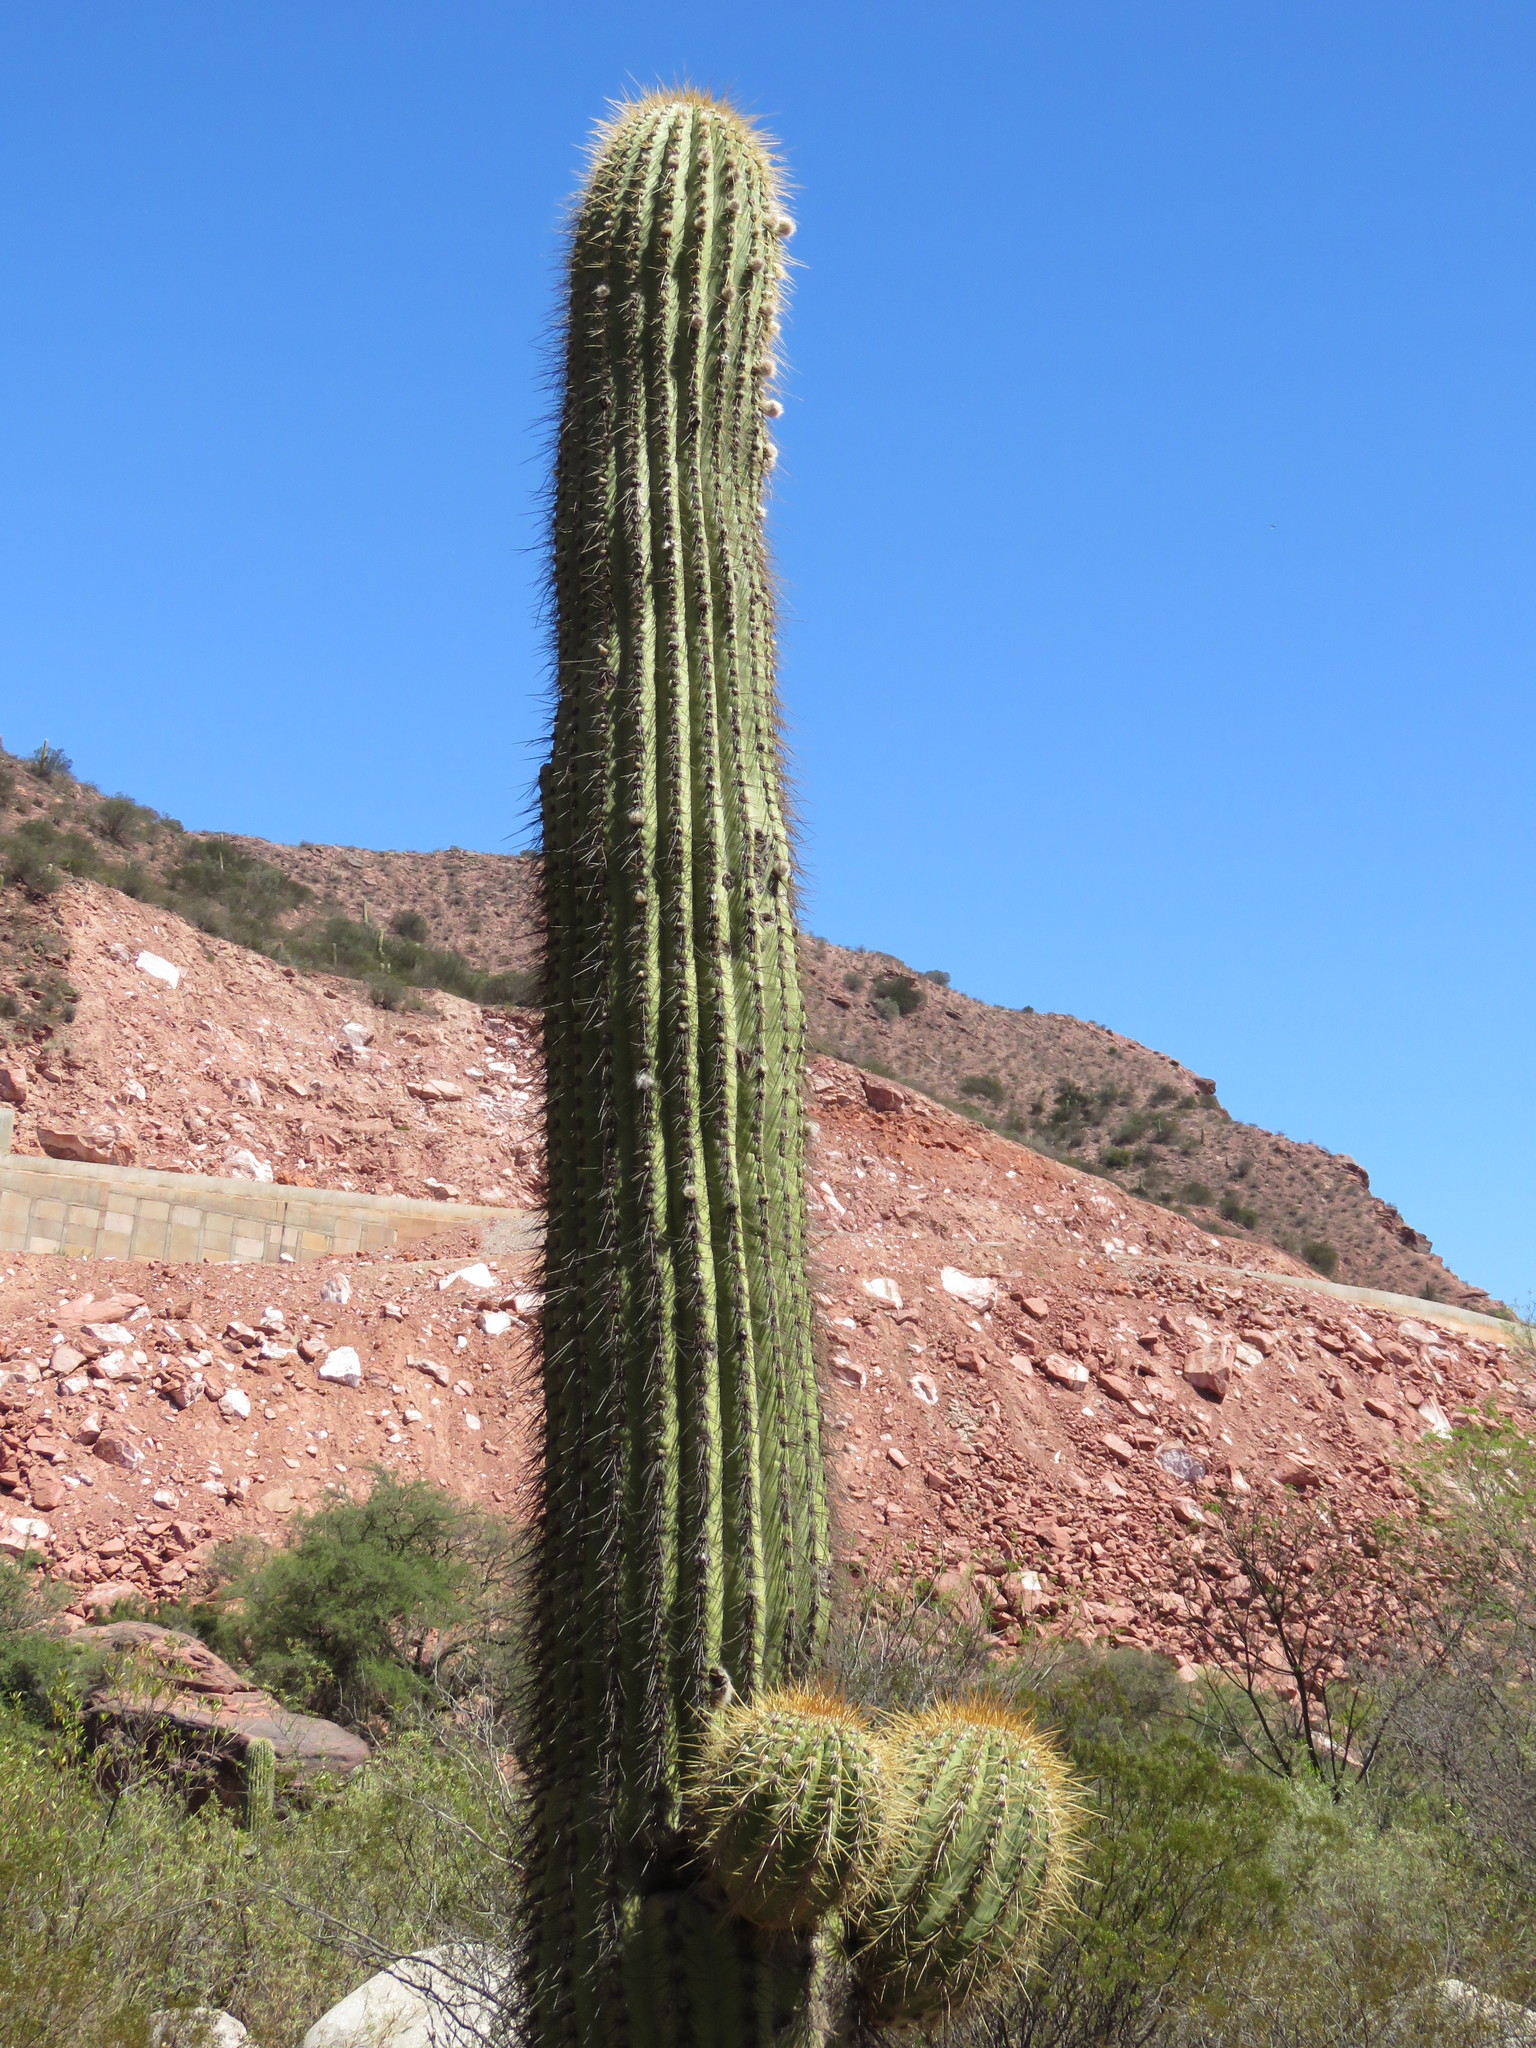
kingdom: Plantae
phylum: Tracheophyta
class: Magnoliopsida
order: Caryophyllales
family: Cactaceae
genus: Leucostele
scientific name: Leucostele terscheckii
